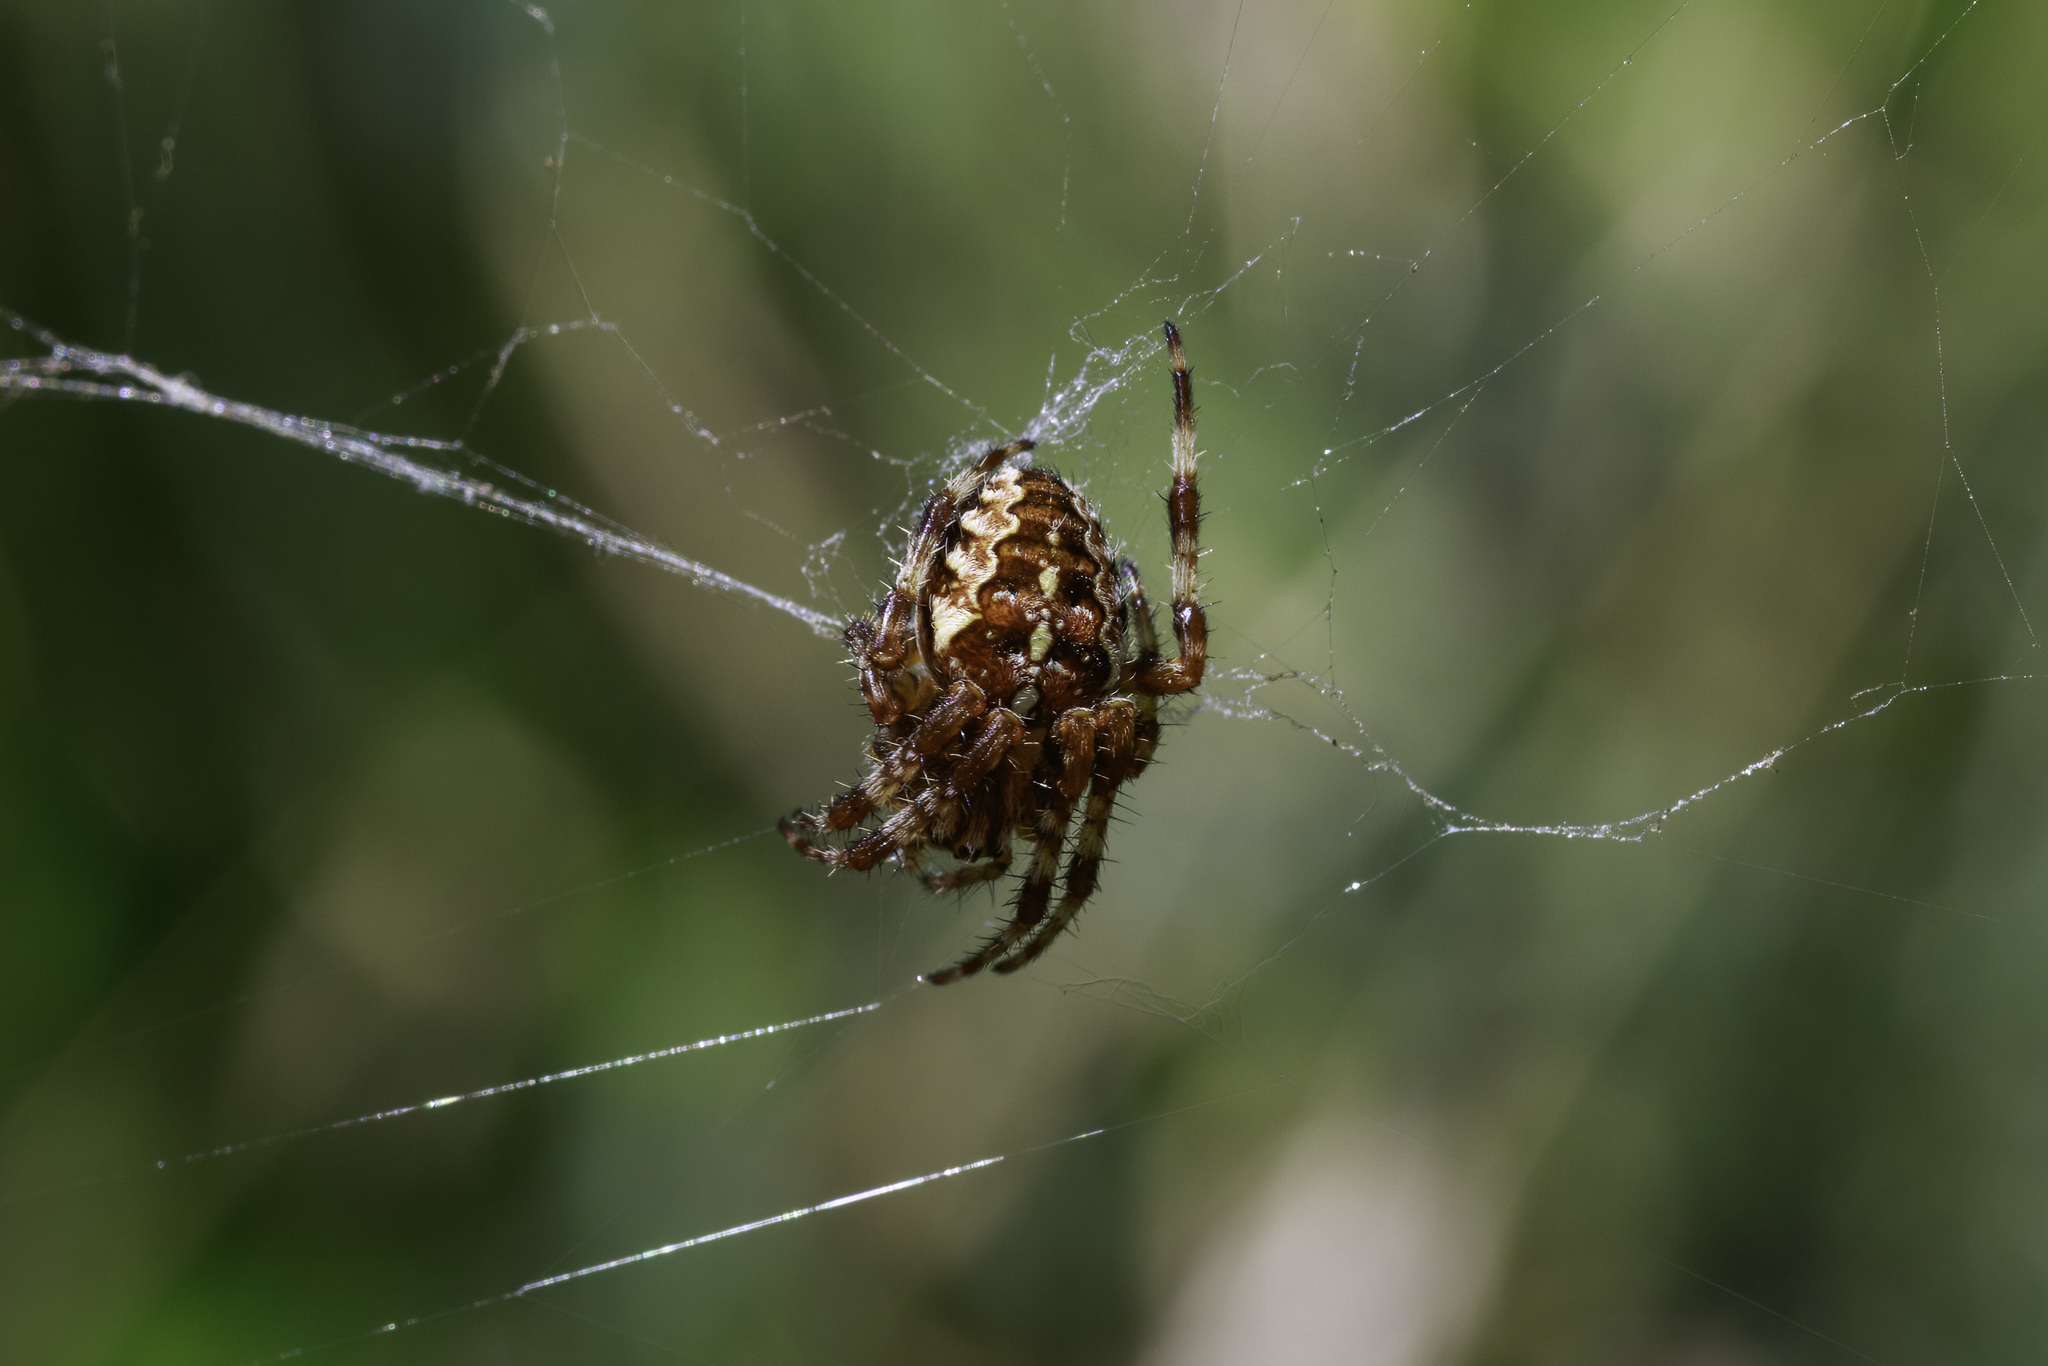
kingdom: Animalia
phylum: Arthropoda
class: Arachnida
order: Araneae
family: Araneidae
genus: Araneus
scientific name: Araneus diadematus
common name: Cross orbweaver
